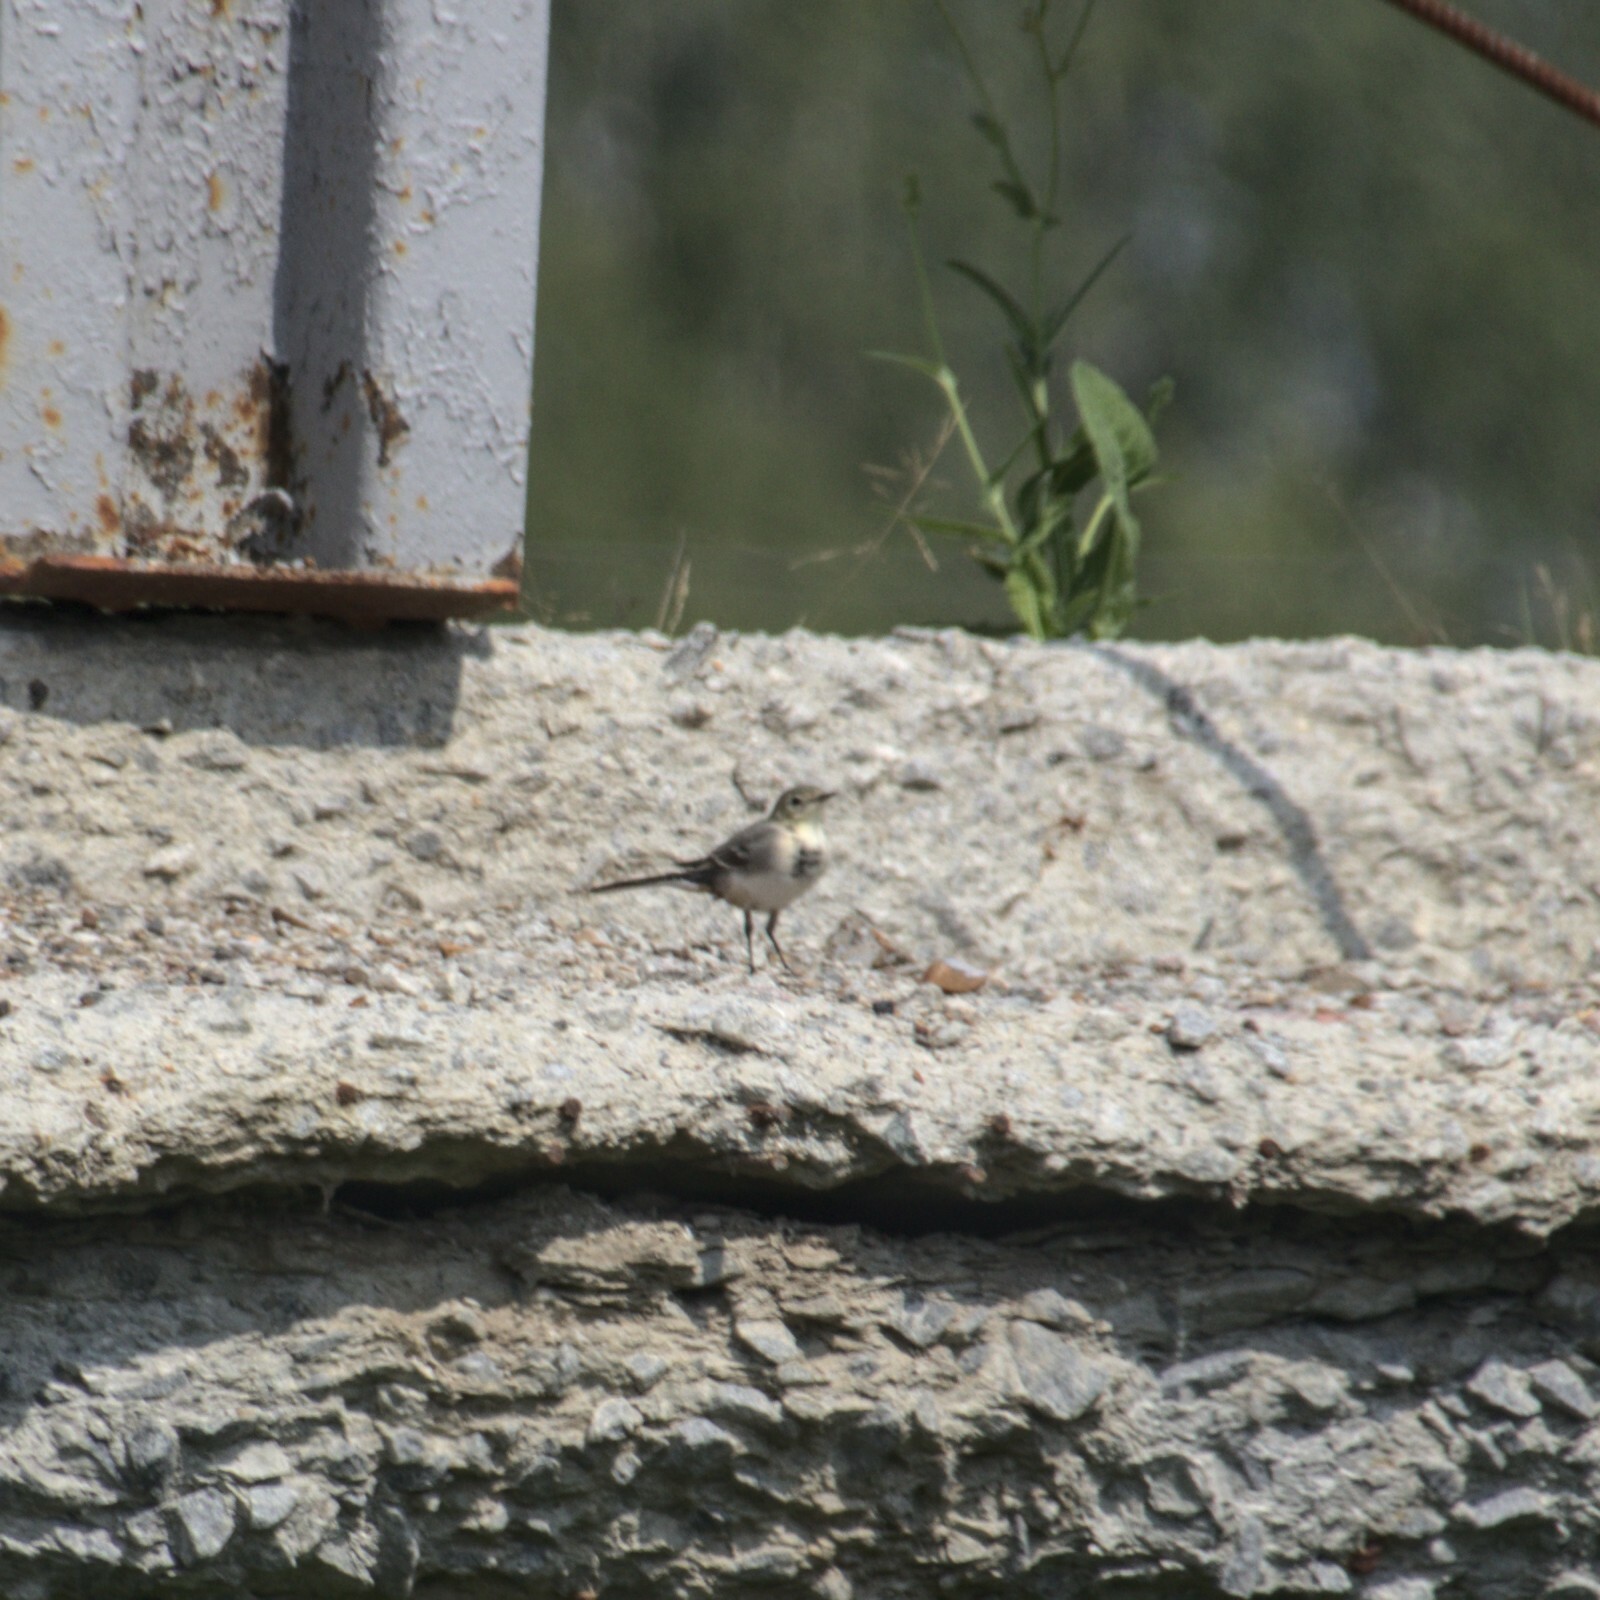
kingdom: Animalia
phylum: Chordata
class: Aves
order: Passeriformes
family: Motacillidae
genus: Motacilla
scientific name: Motacilla alba
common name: White wagtail
